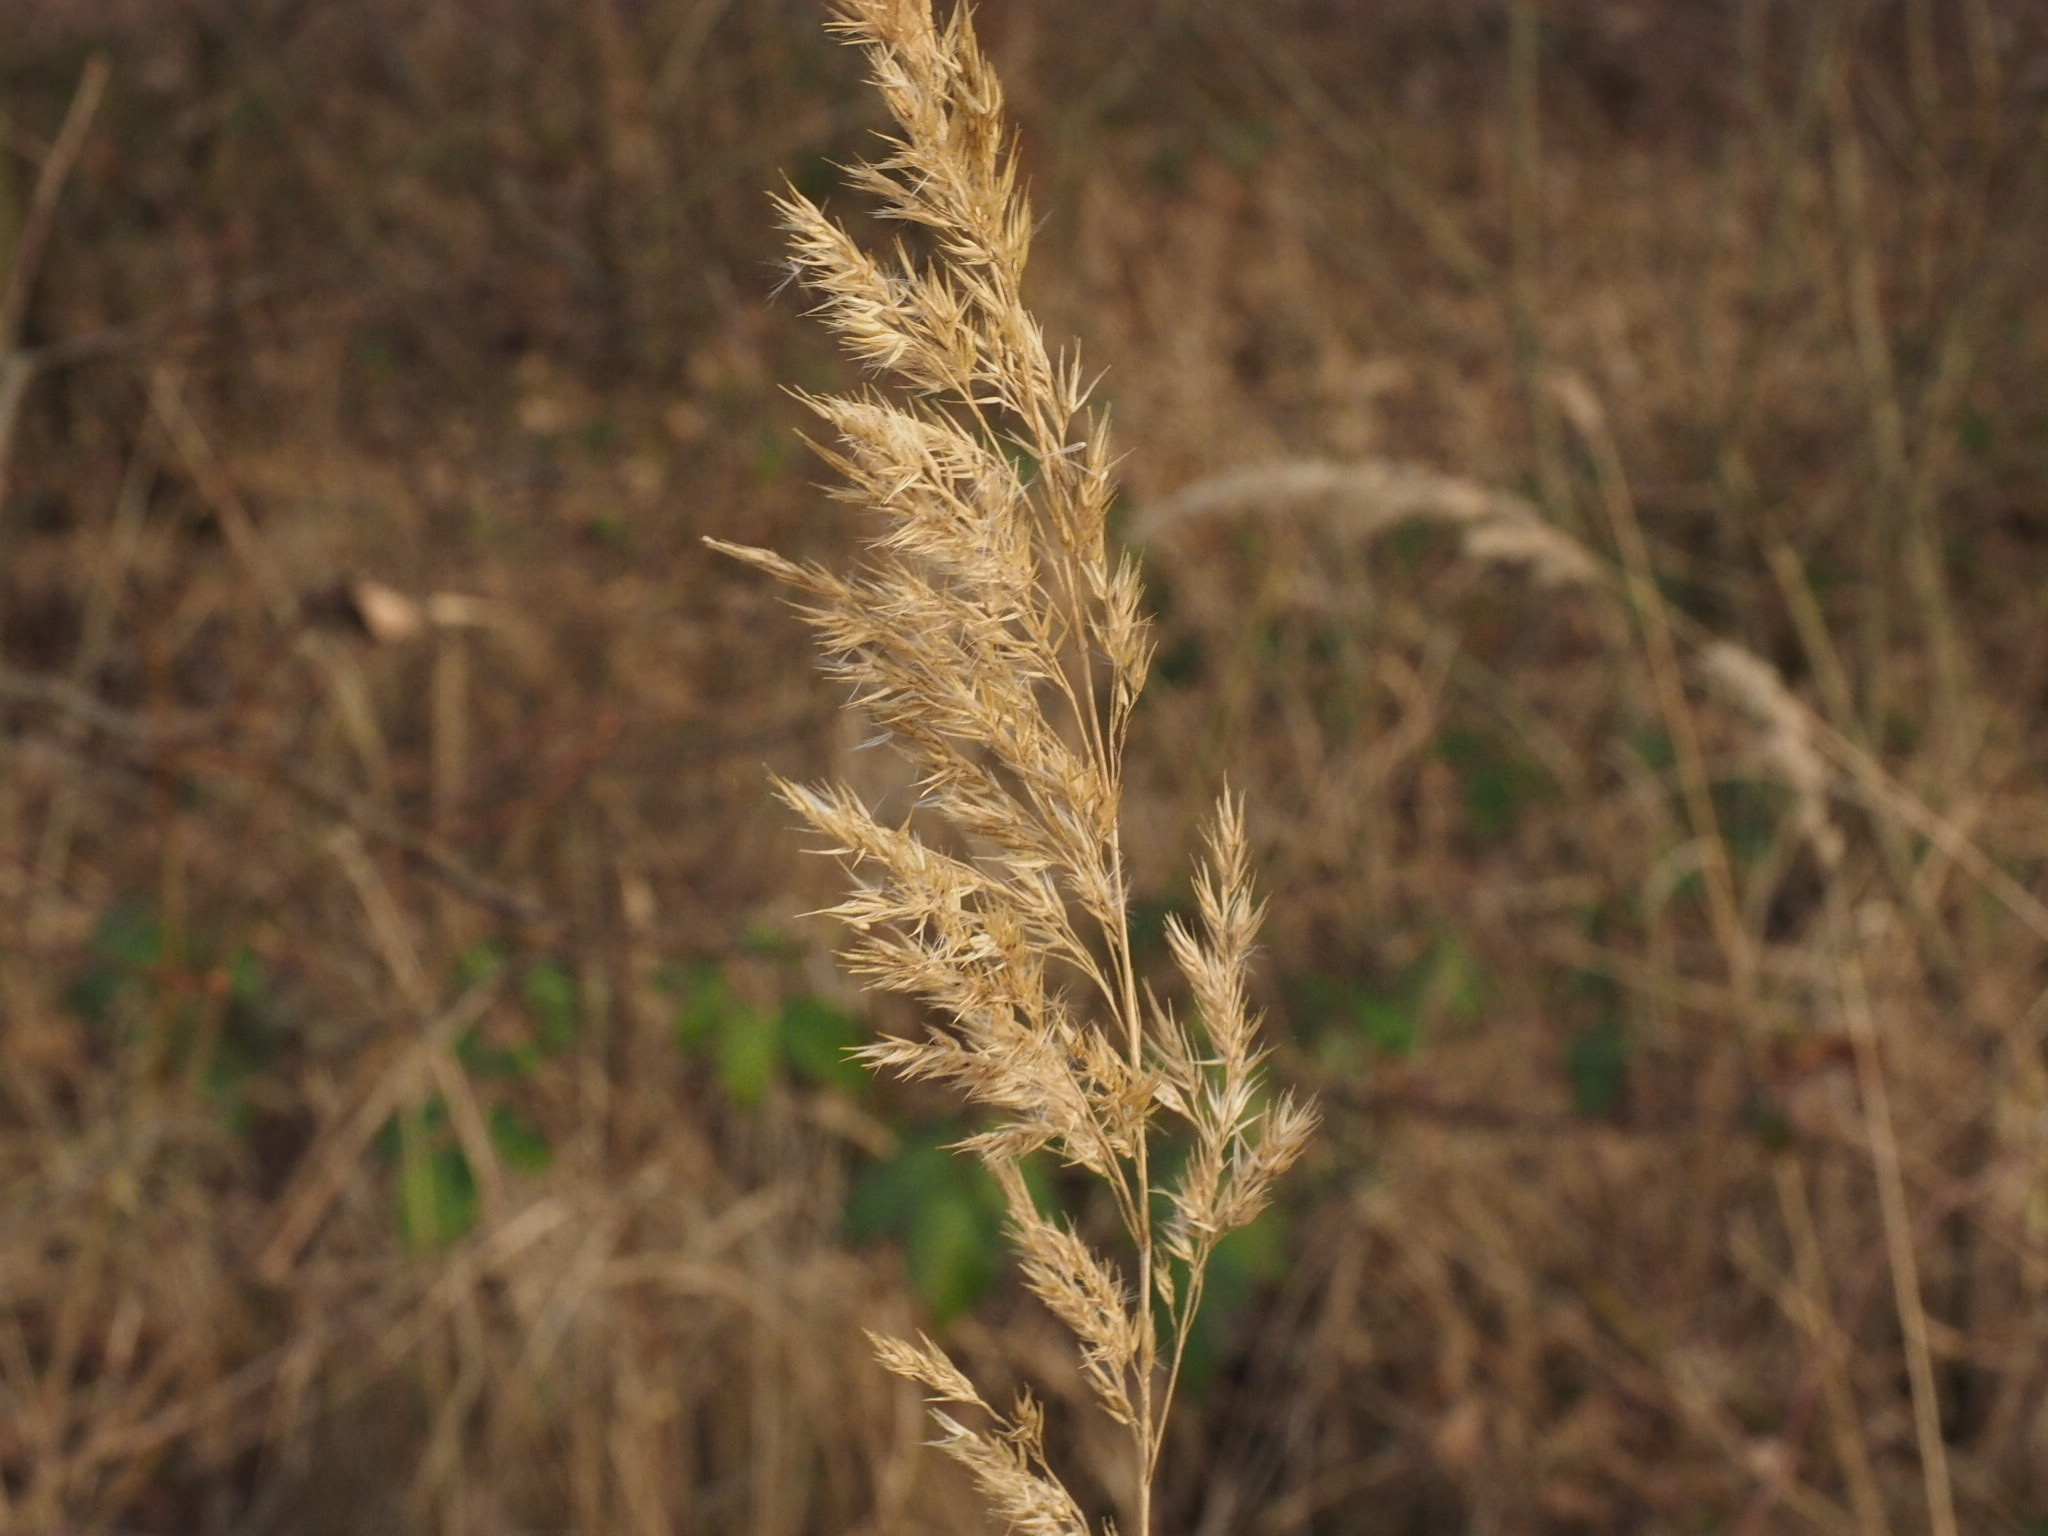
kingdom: Plantae
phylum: Tracheophyta
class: Liliopsida
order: Poales
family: Poaceae
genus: Calamagrostis
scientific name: Calamagrostis epigejos
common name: Wood small-reed
